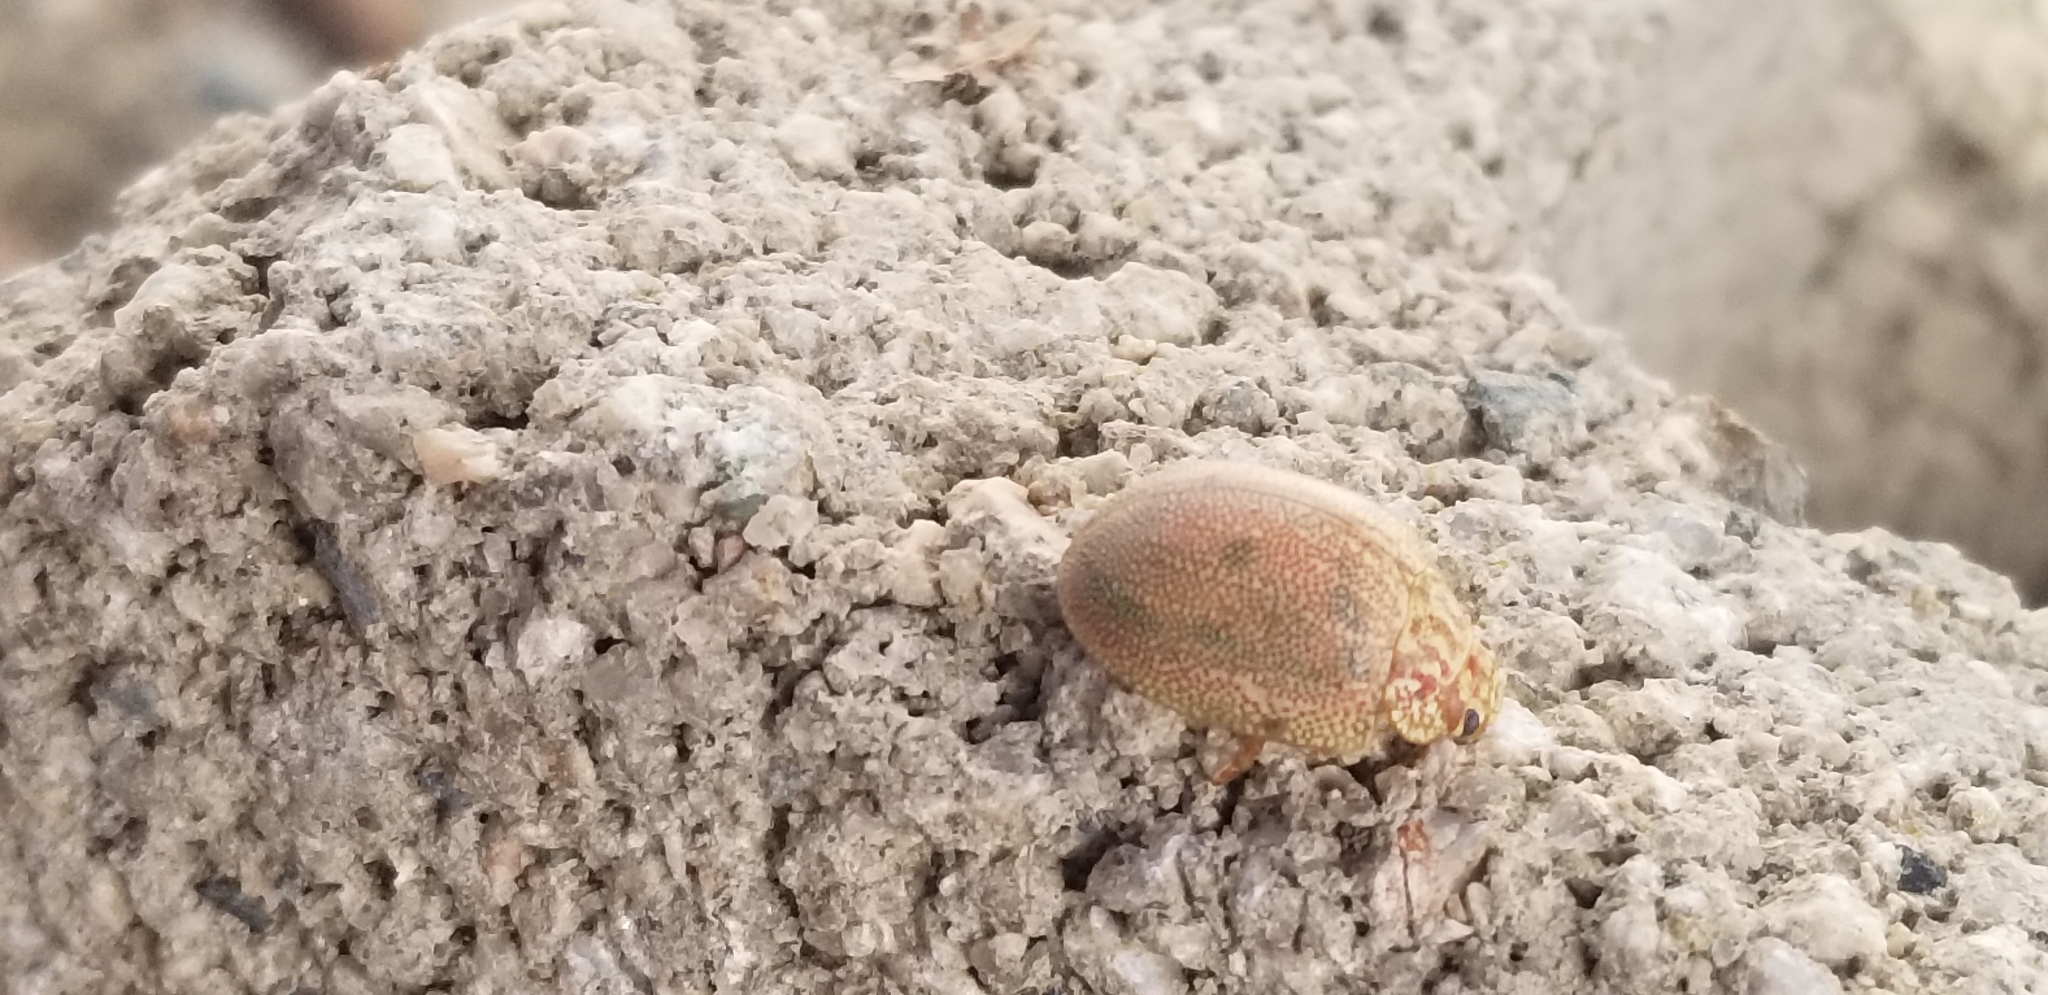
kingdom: Animalia
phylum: Arthropoda
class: Insecta
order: Coleoptera
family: Chrysomelidae
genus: Paropsis
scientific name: Paropsis
